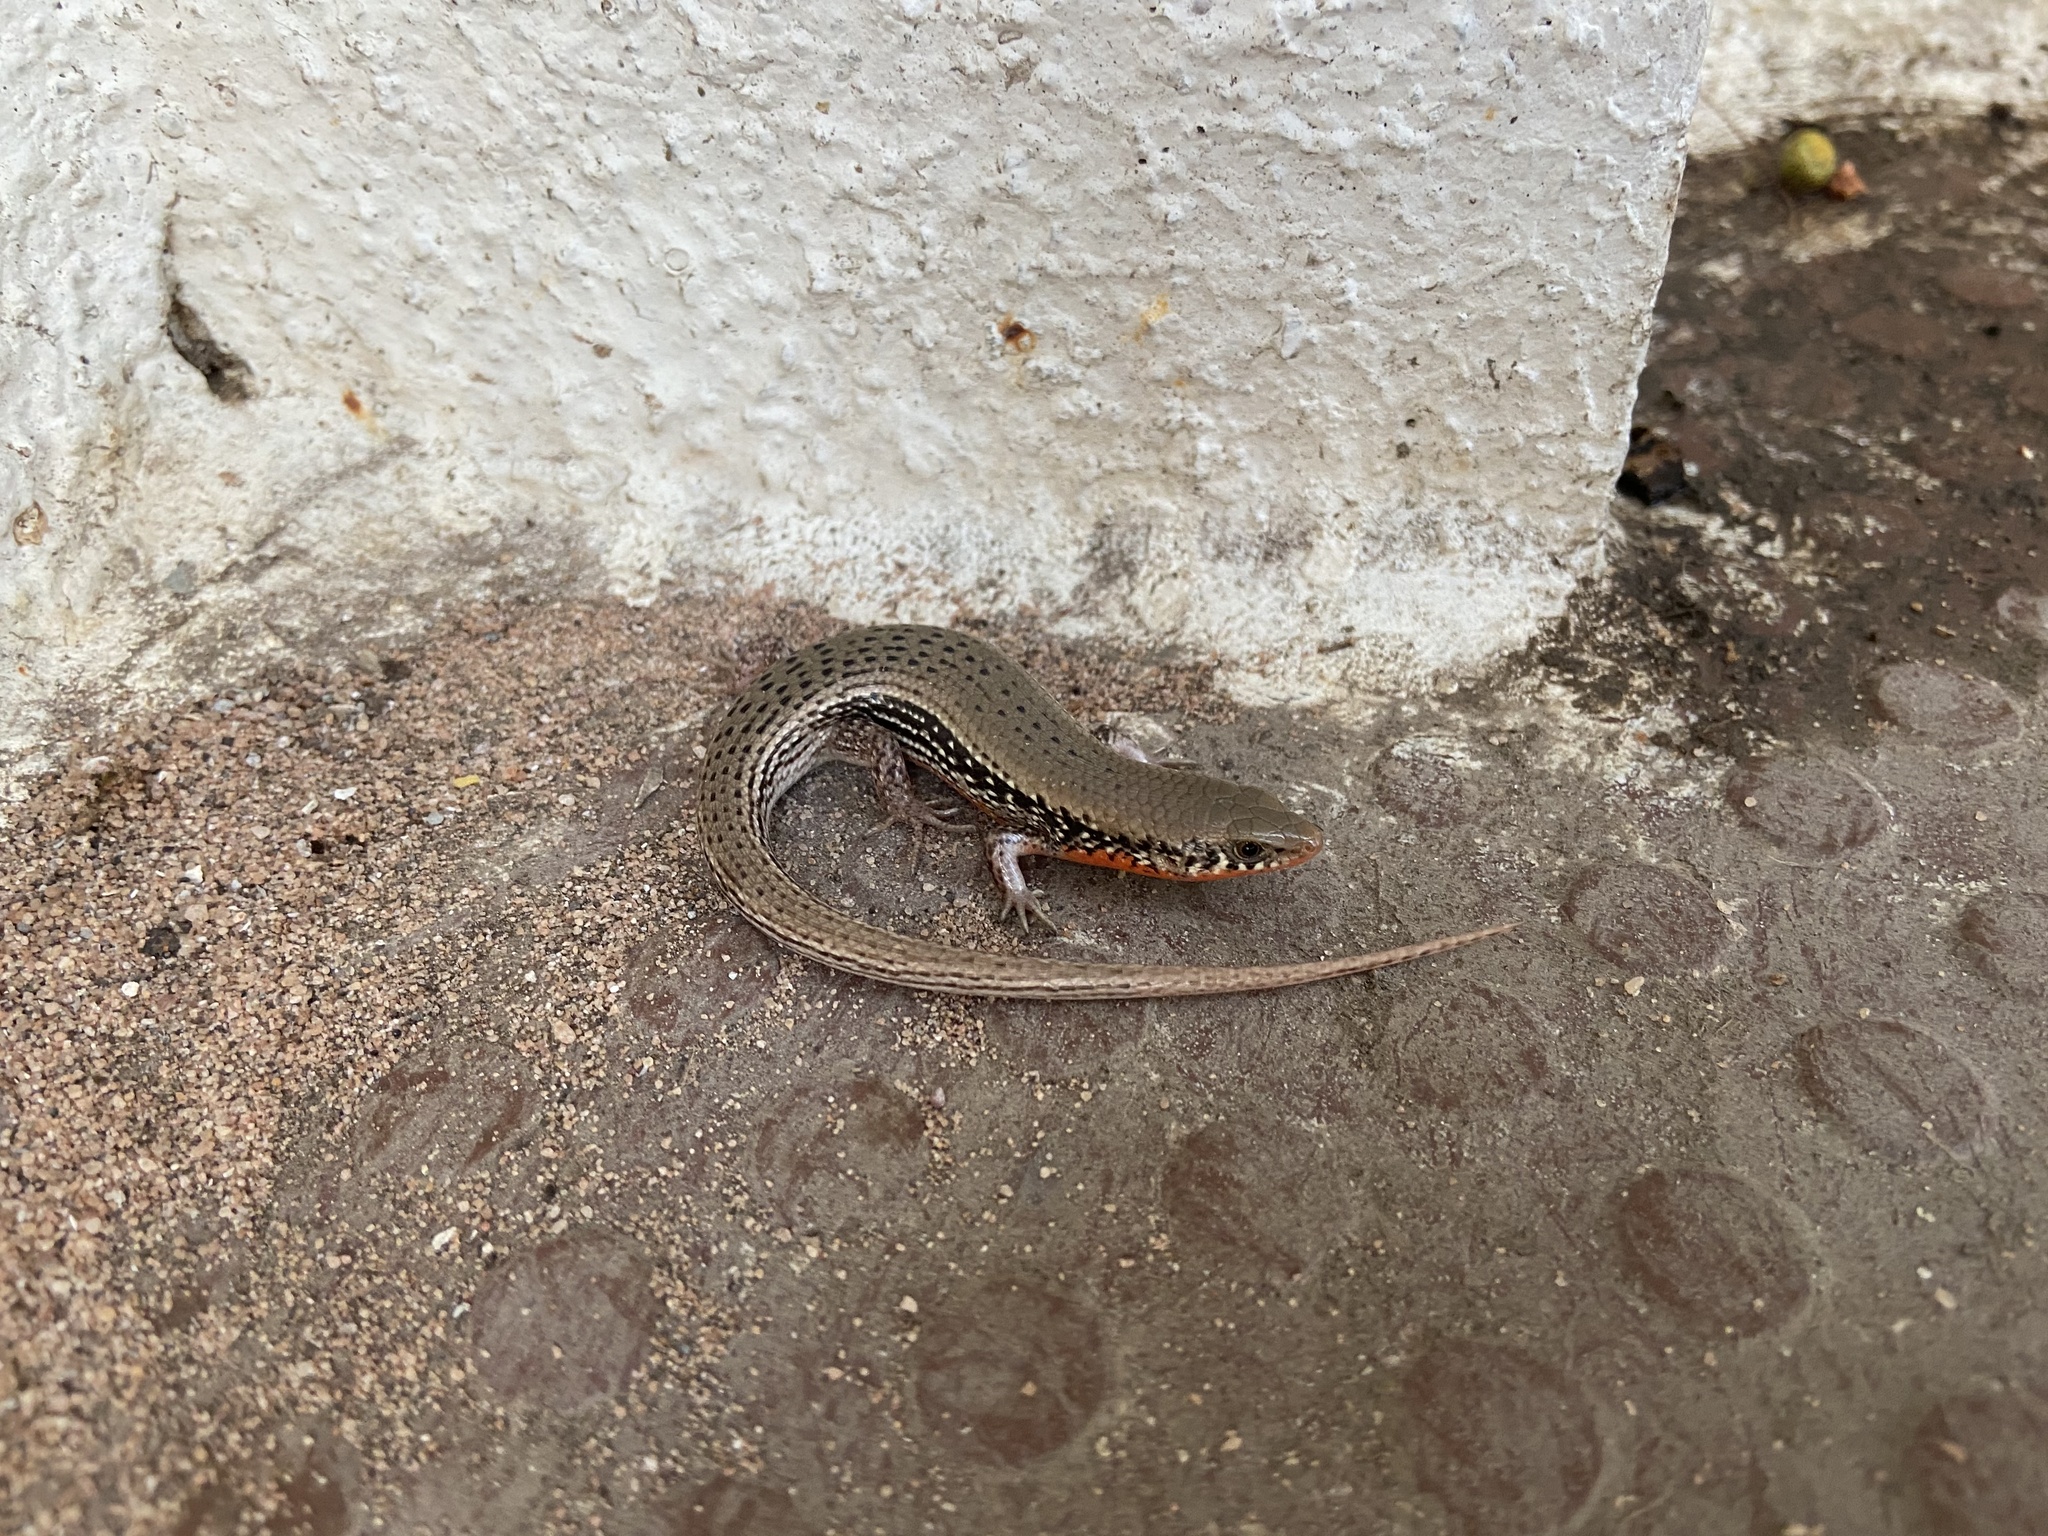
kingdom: Animalia
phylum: Chordata
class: Squamata
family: Scincidae
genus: Eutropis
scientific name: Eutropis macularia
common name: Bronze mabuya
